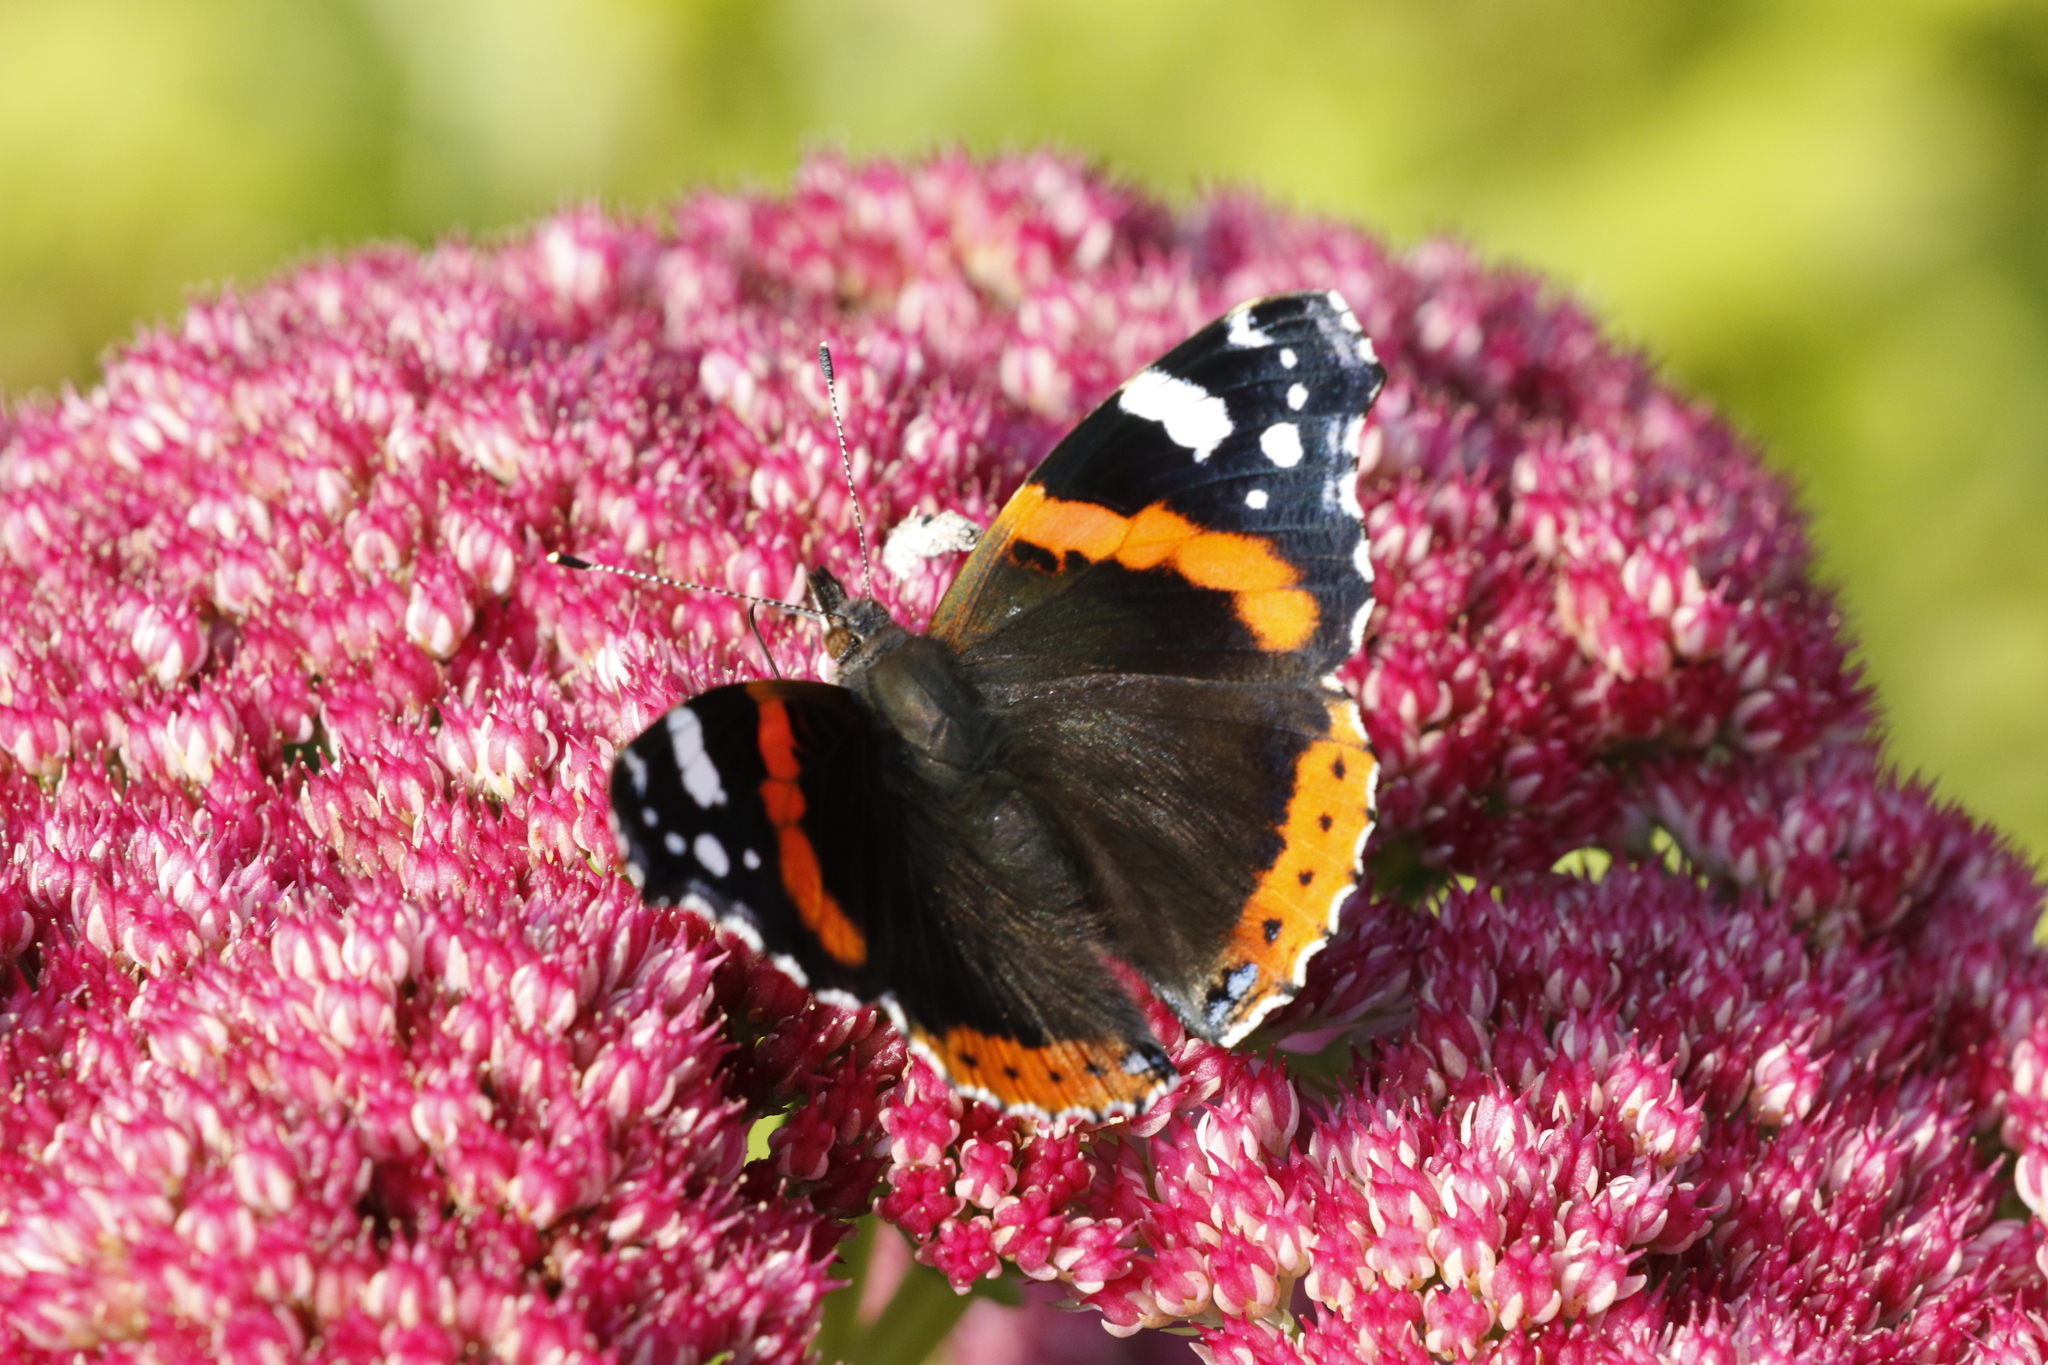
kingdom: Animalia
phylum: Arthropoda
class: Insecta
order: Lepidoptera
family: Nymphalidae
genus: Vanessa
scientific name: Vanessa atalanta
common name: Red admiral
